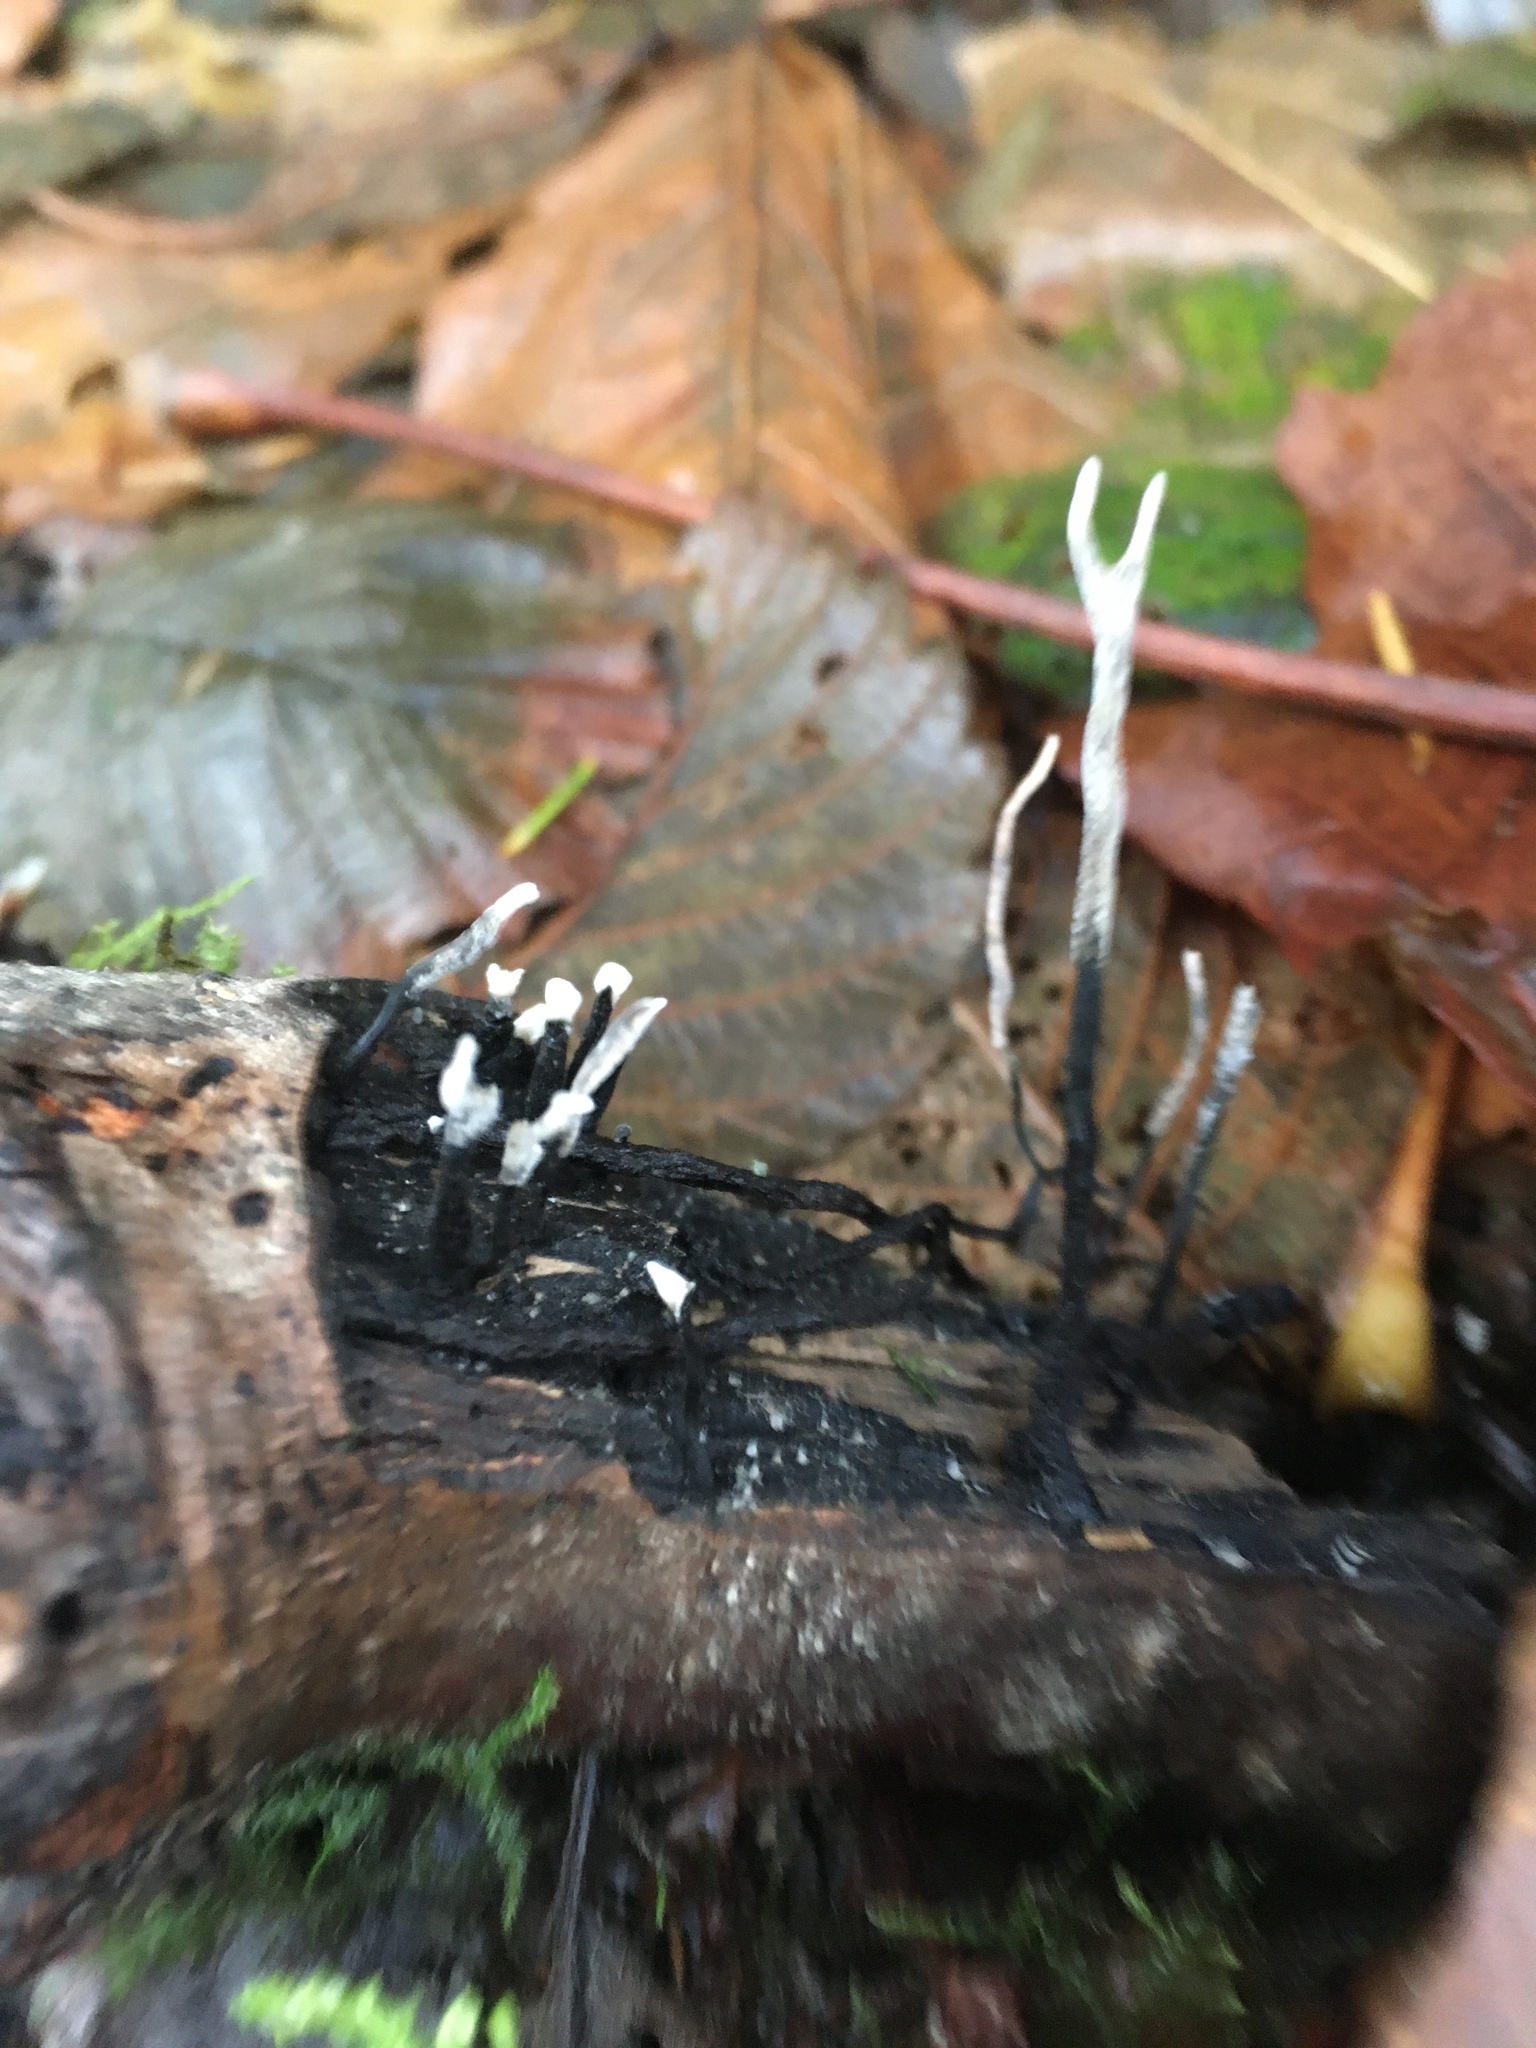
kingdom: Fungi
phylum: Ascomycota
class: Sordariomycetes
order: Xylariales
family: Xylariaceae
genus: Xylaria
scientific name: Xylaria hypoxylon
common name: Candle-snuff fungus
